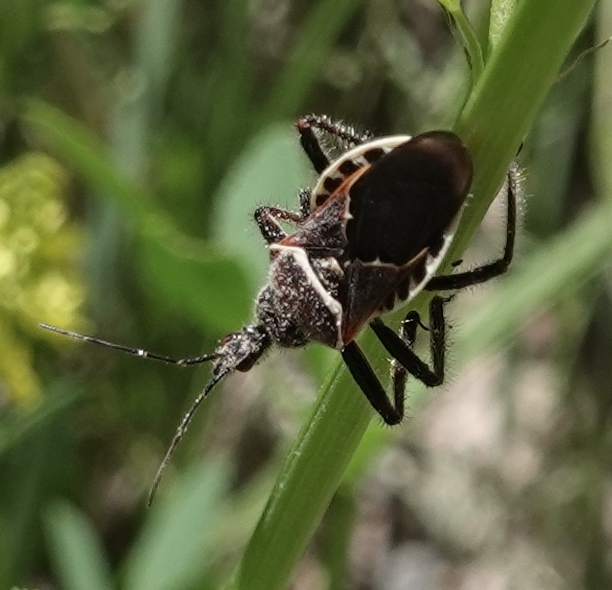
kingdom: Animalia
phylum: Arthropoda
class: Insecta
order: Hemiptera
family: Reduviidae
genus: Apiomerus
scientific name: Apiomerus spissipes
